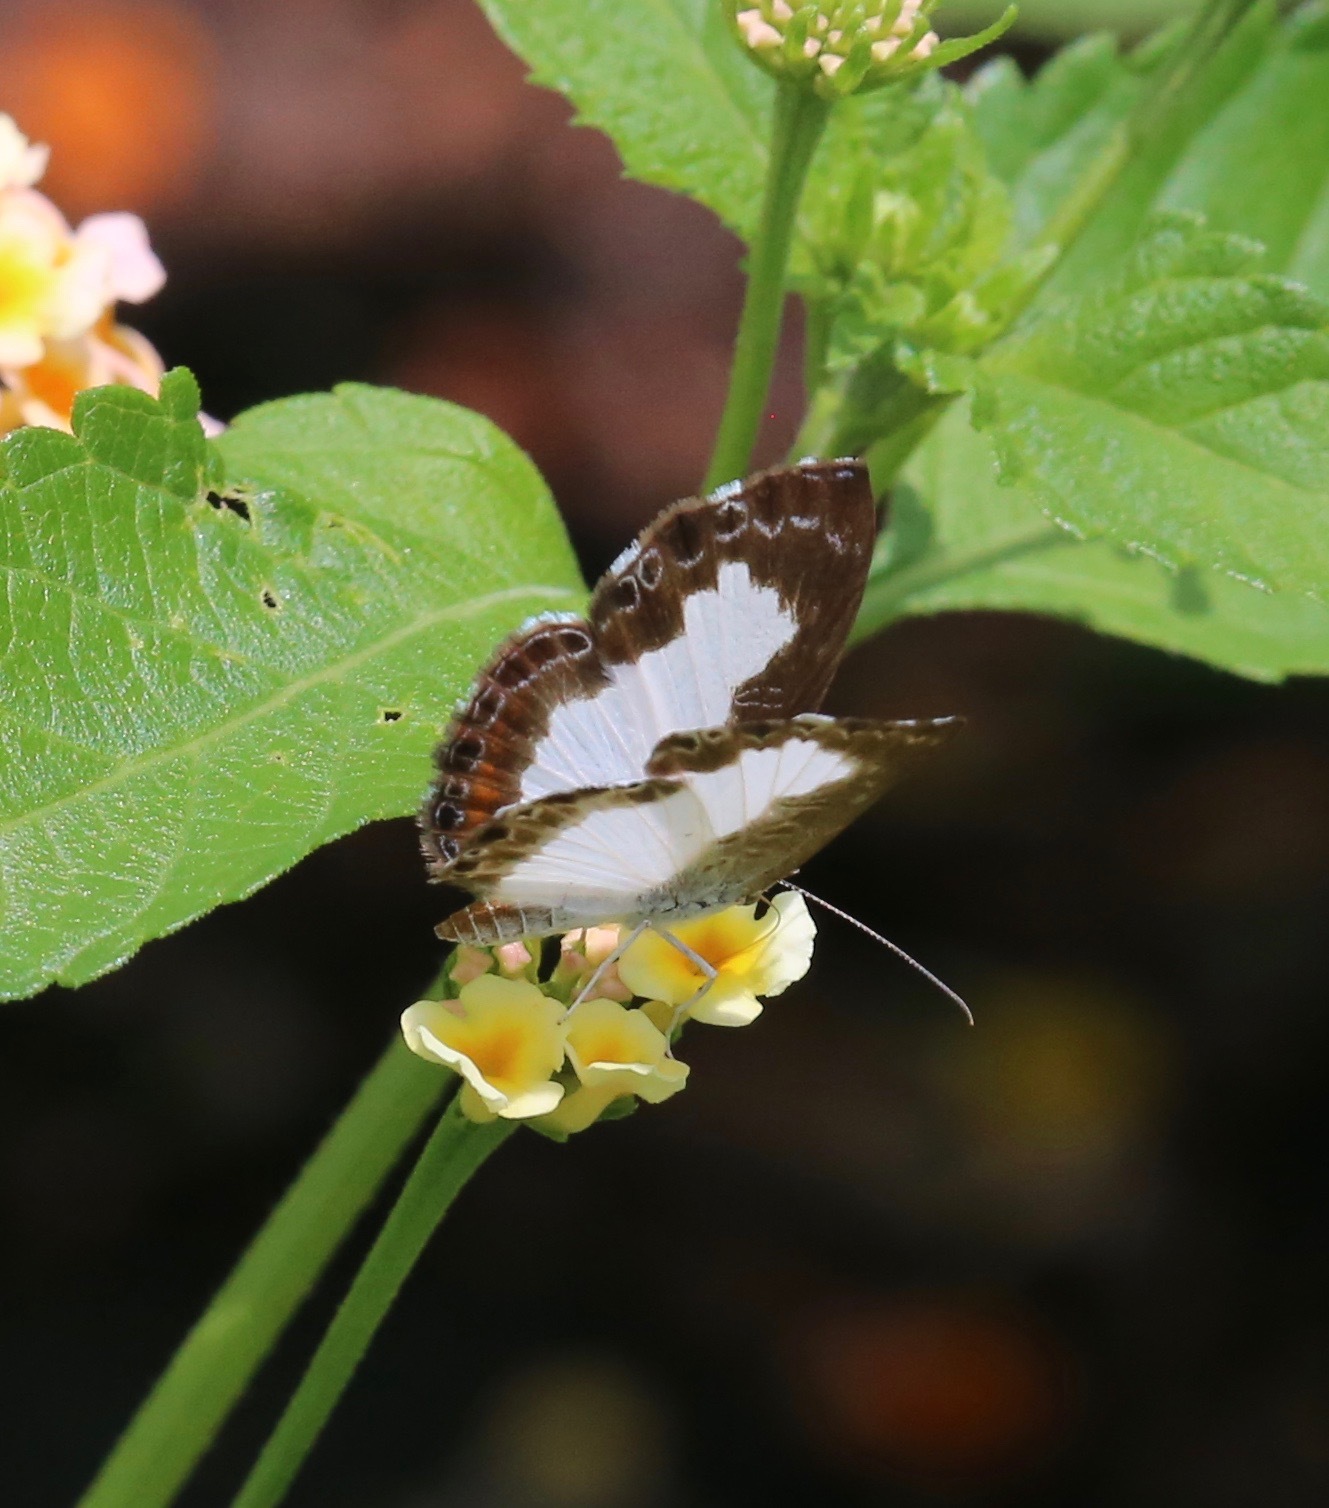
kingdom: Animalia
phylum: Arthropoda
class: Insecta
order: Lepidoptera
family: Riodinidae
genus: Juditha
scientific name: Juditha caucana
